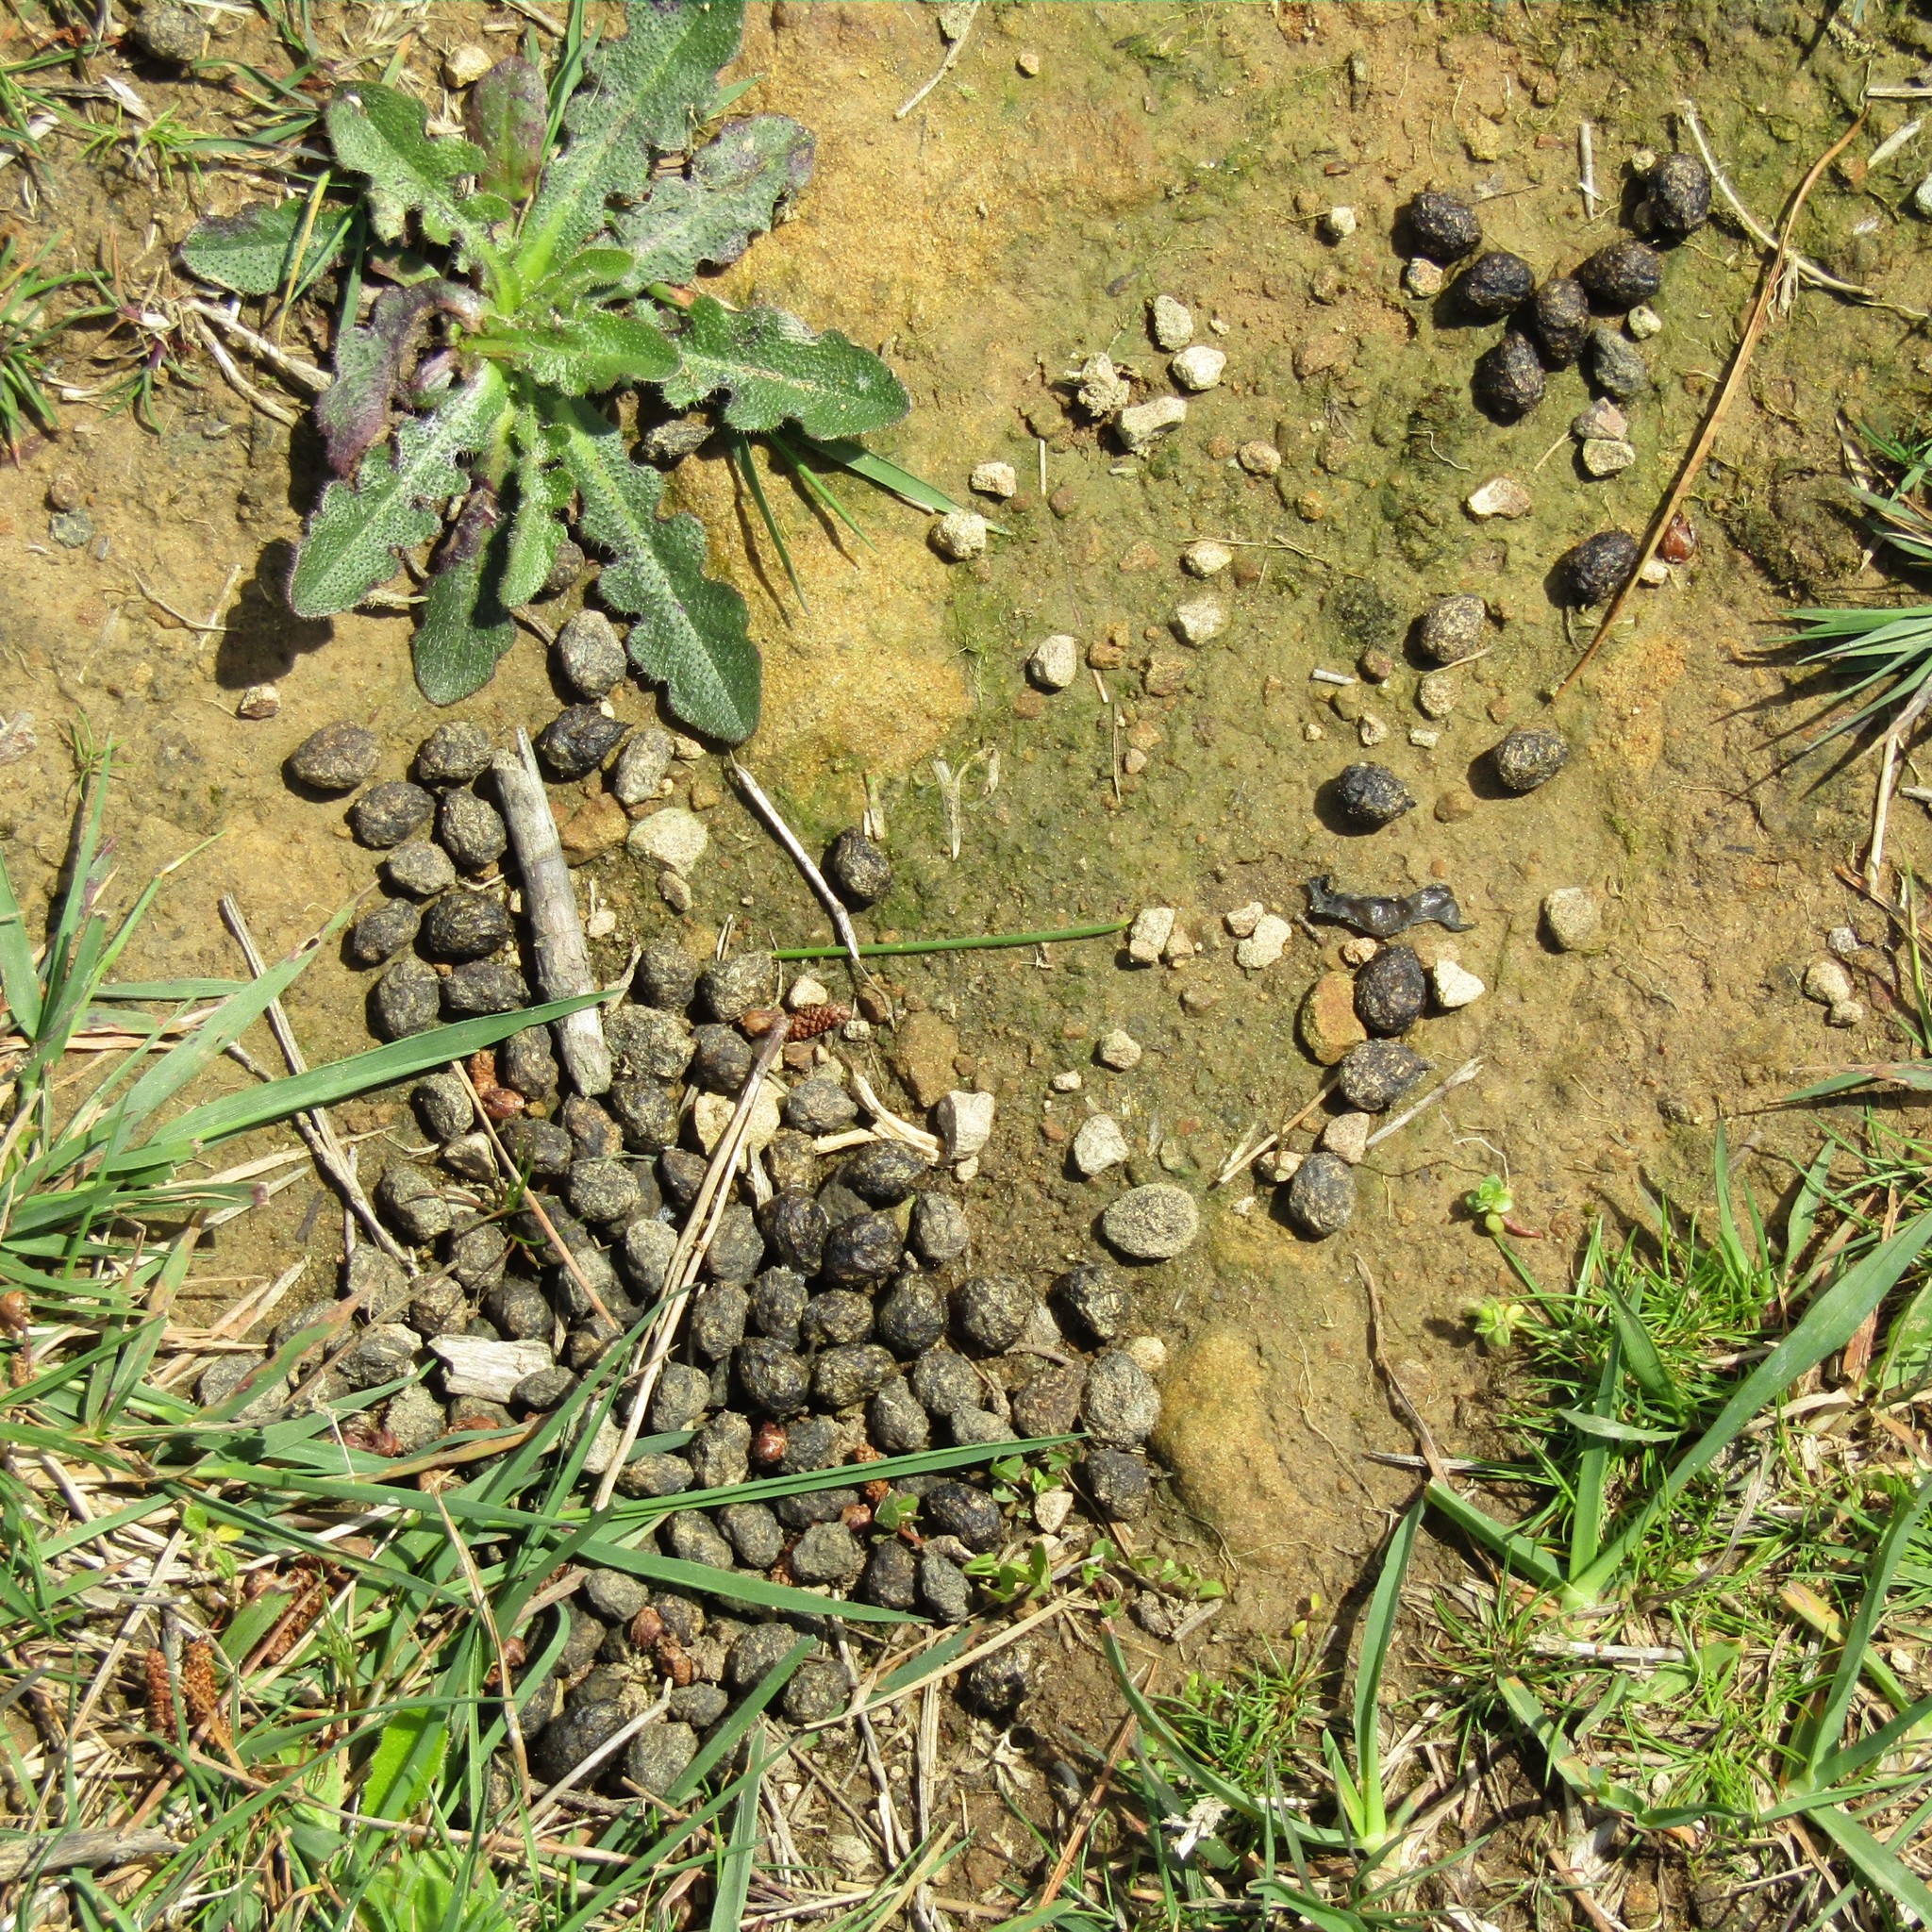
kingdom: Animalia
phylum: Chordata
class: Mammalia
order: Lagomorpha
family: Leporidae
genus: Oryctolagus
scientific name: Oryctolagus cuniculus
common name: European rabbit
